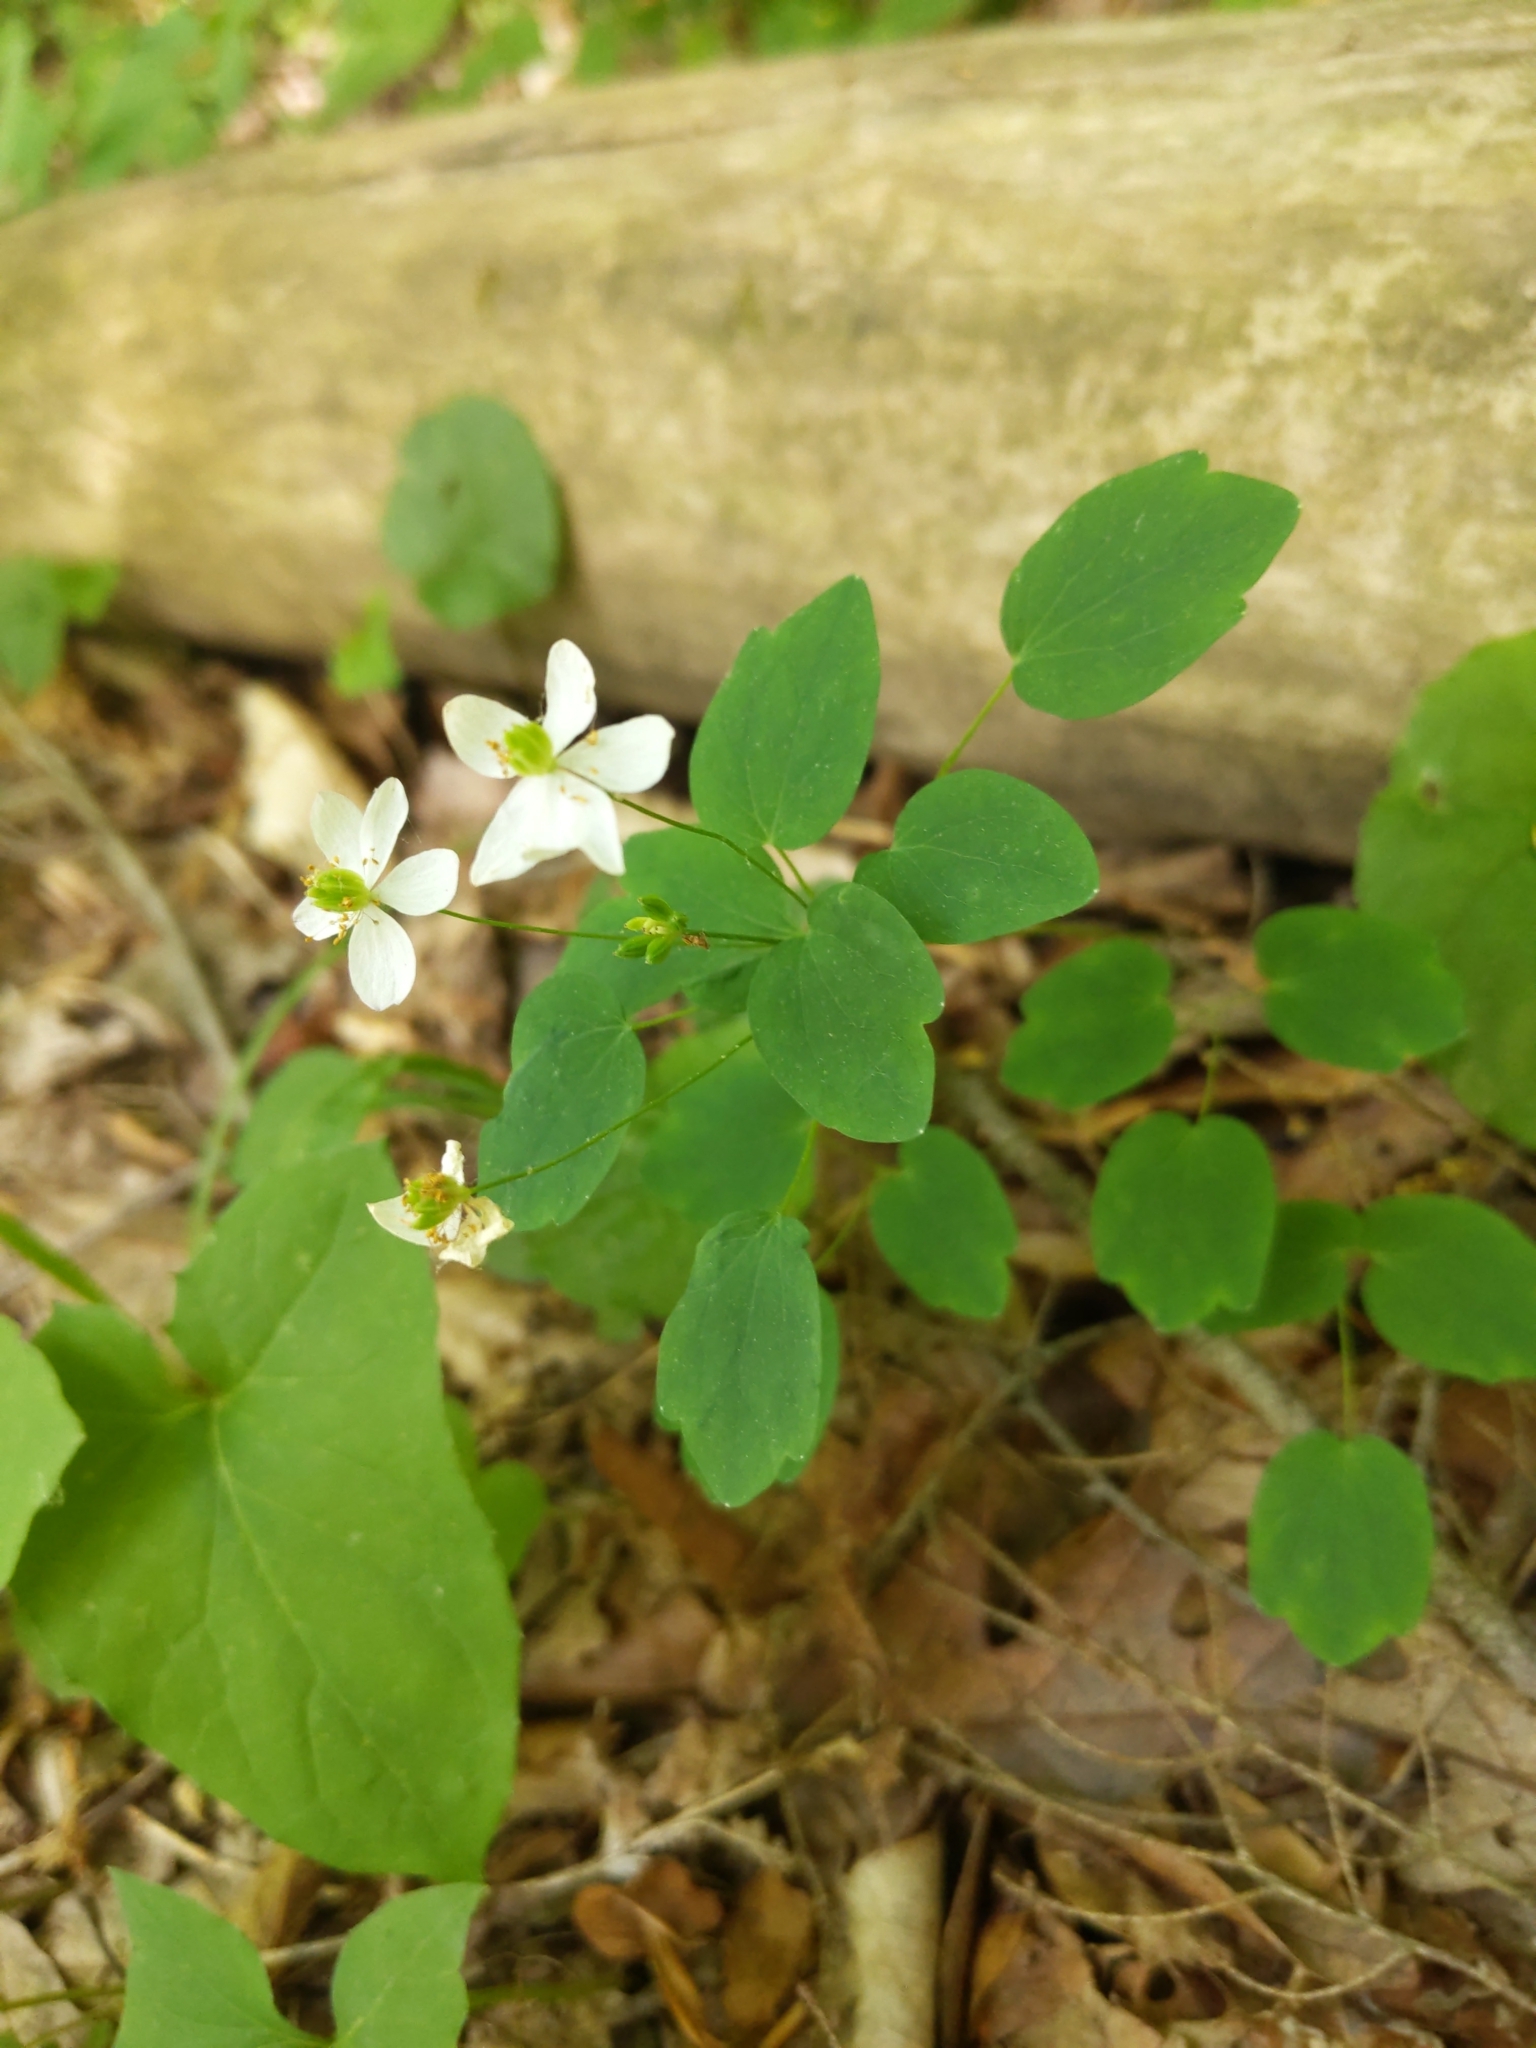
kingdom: Plantae
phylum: Tracheophyta
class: Magnoliopsida
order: Ranunculales
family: Ranunculaceae
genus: Thalictrum
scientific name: Thalictrum thalictroides
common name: Rue-anemone
